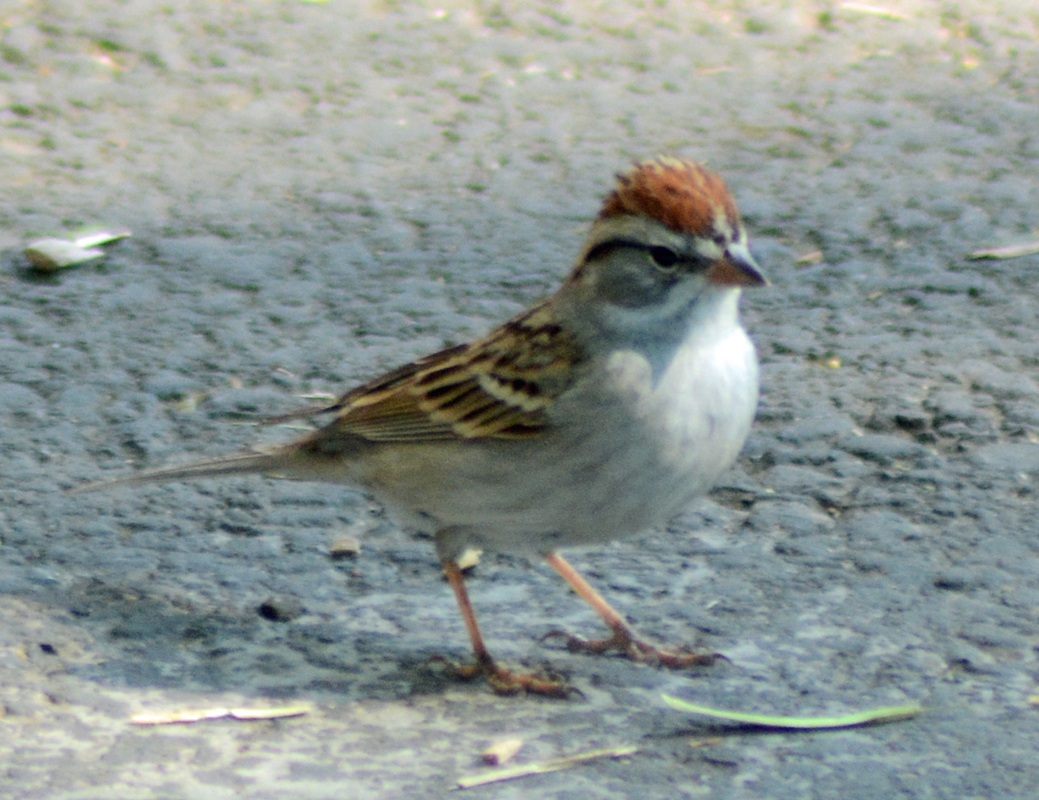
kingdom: Animalia
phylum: Chordata
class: Aves
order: Passeriformes
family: Passerellidae
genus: Spizella
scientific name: Spizella passerina
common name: Chipping sparrow
